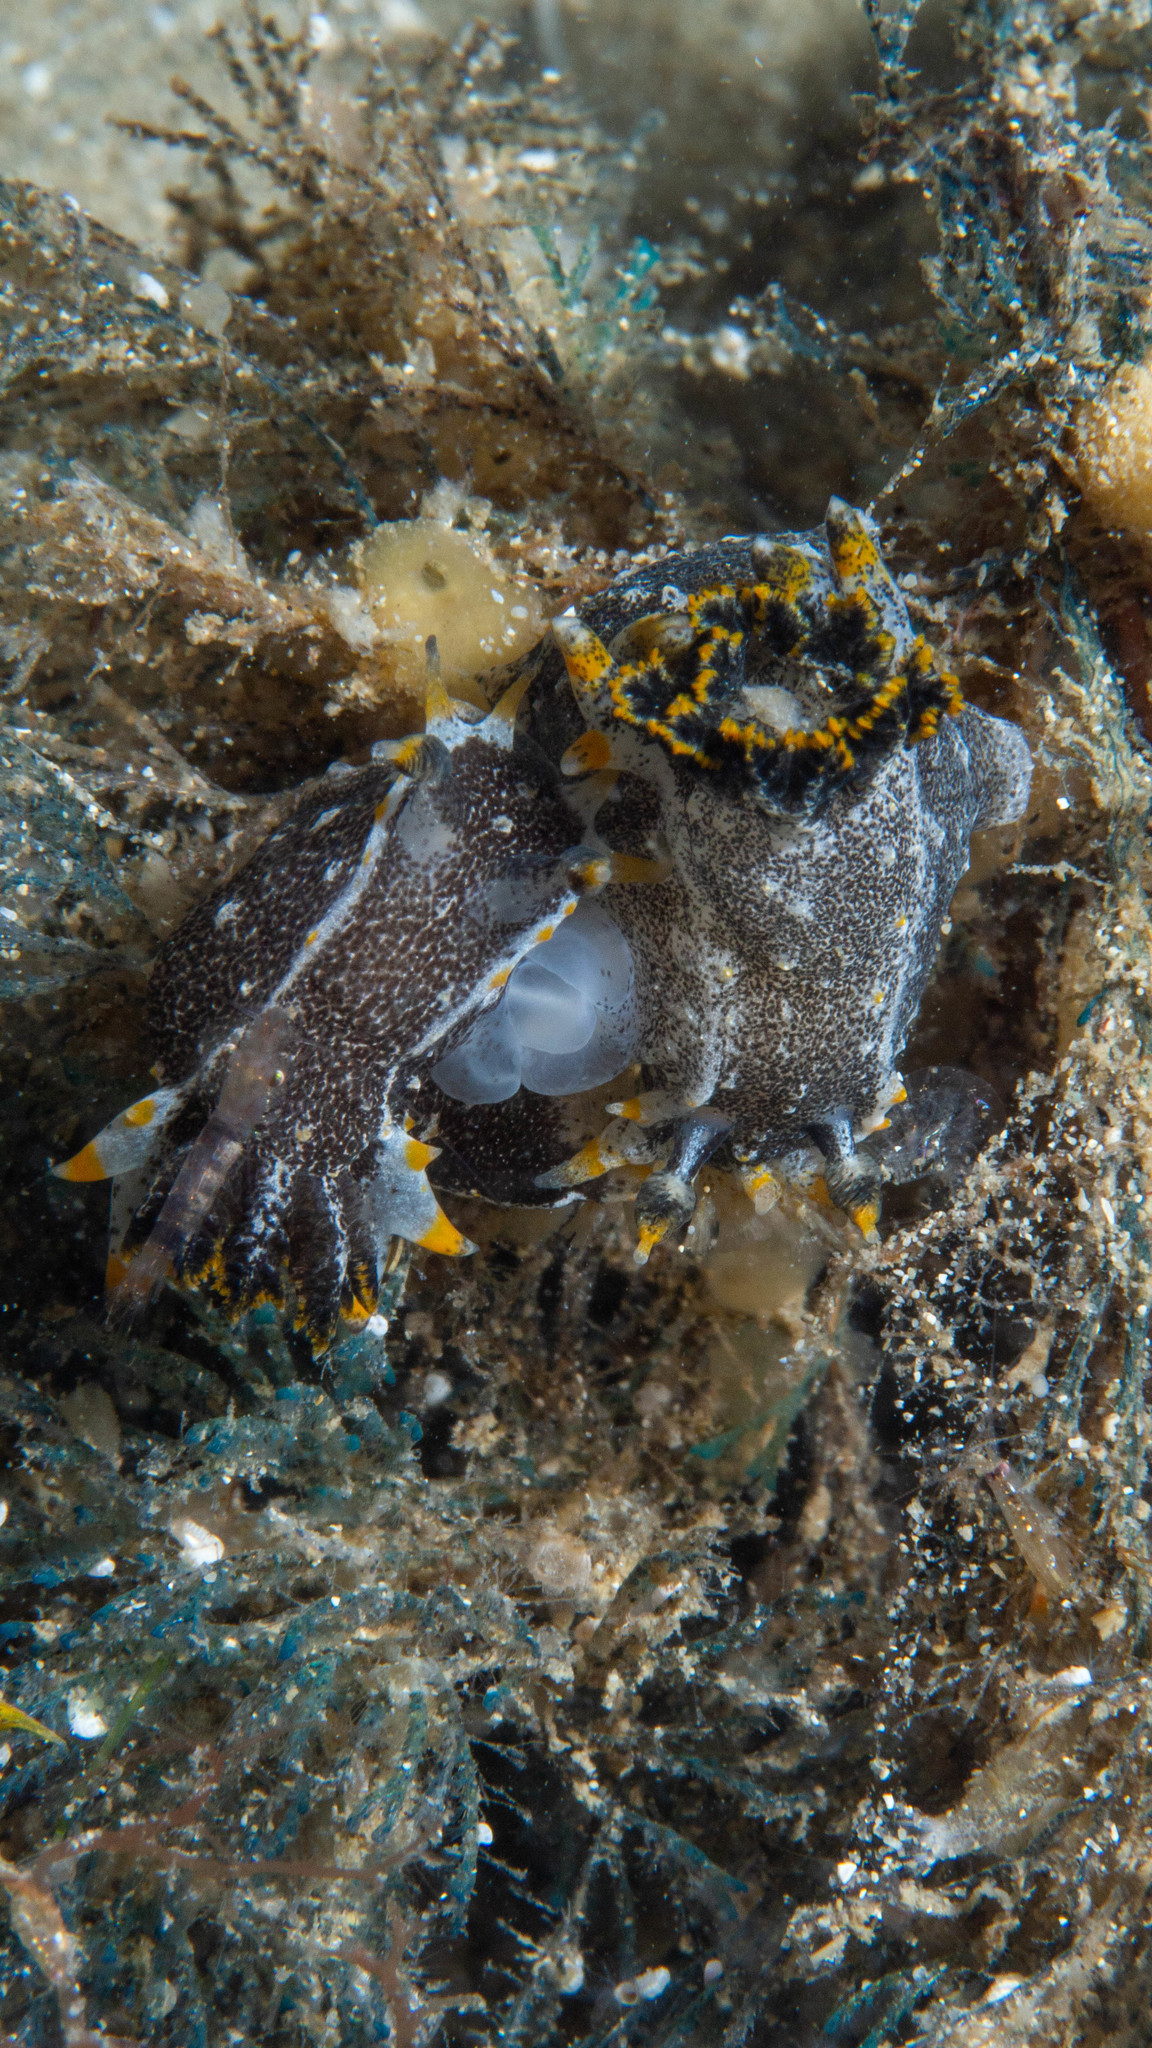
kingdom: Animalia
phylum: Mollusca
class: Gastropoda
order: Nudibranchia
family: Polyceridae
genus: Polycera
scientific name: Polycera hedgpethi
